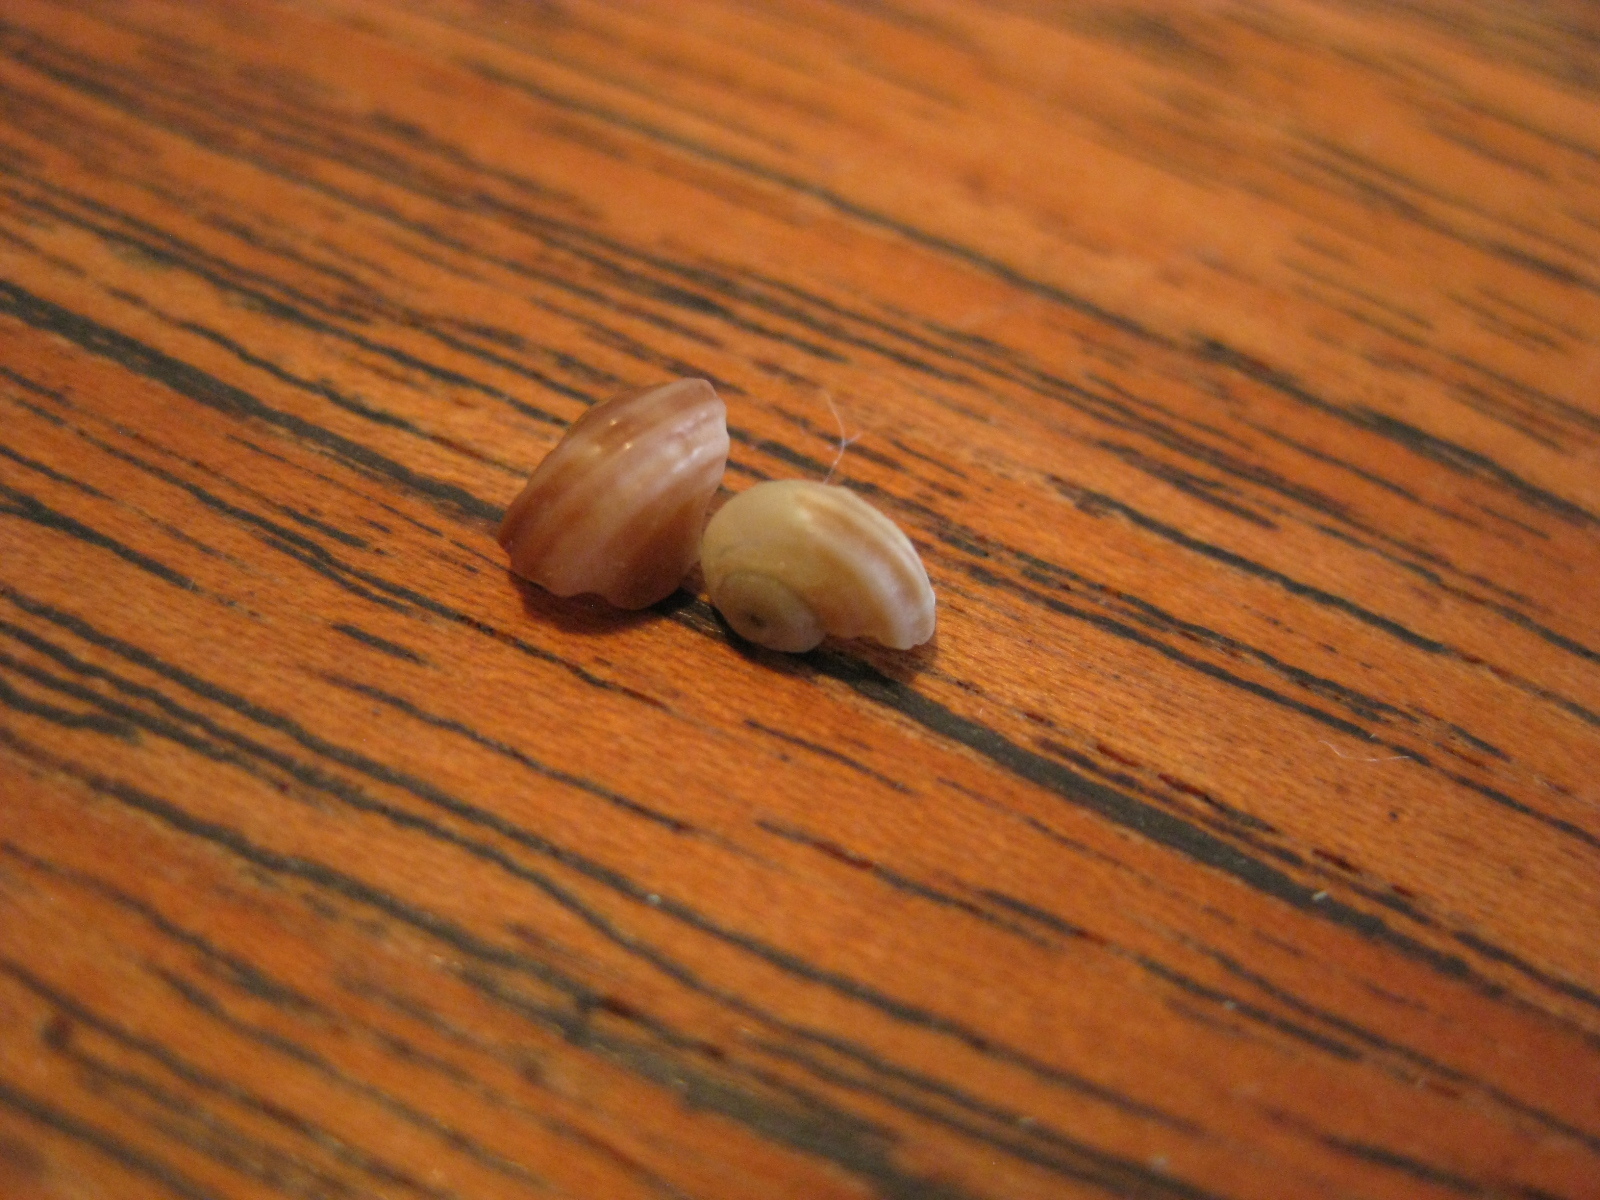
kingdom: Animalia
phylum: Mollusca
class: Gastropoda
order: Trochida
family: Turbinidae
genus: Lunella
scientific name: Lunella smaragda
